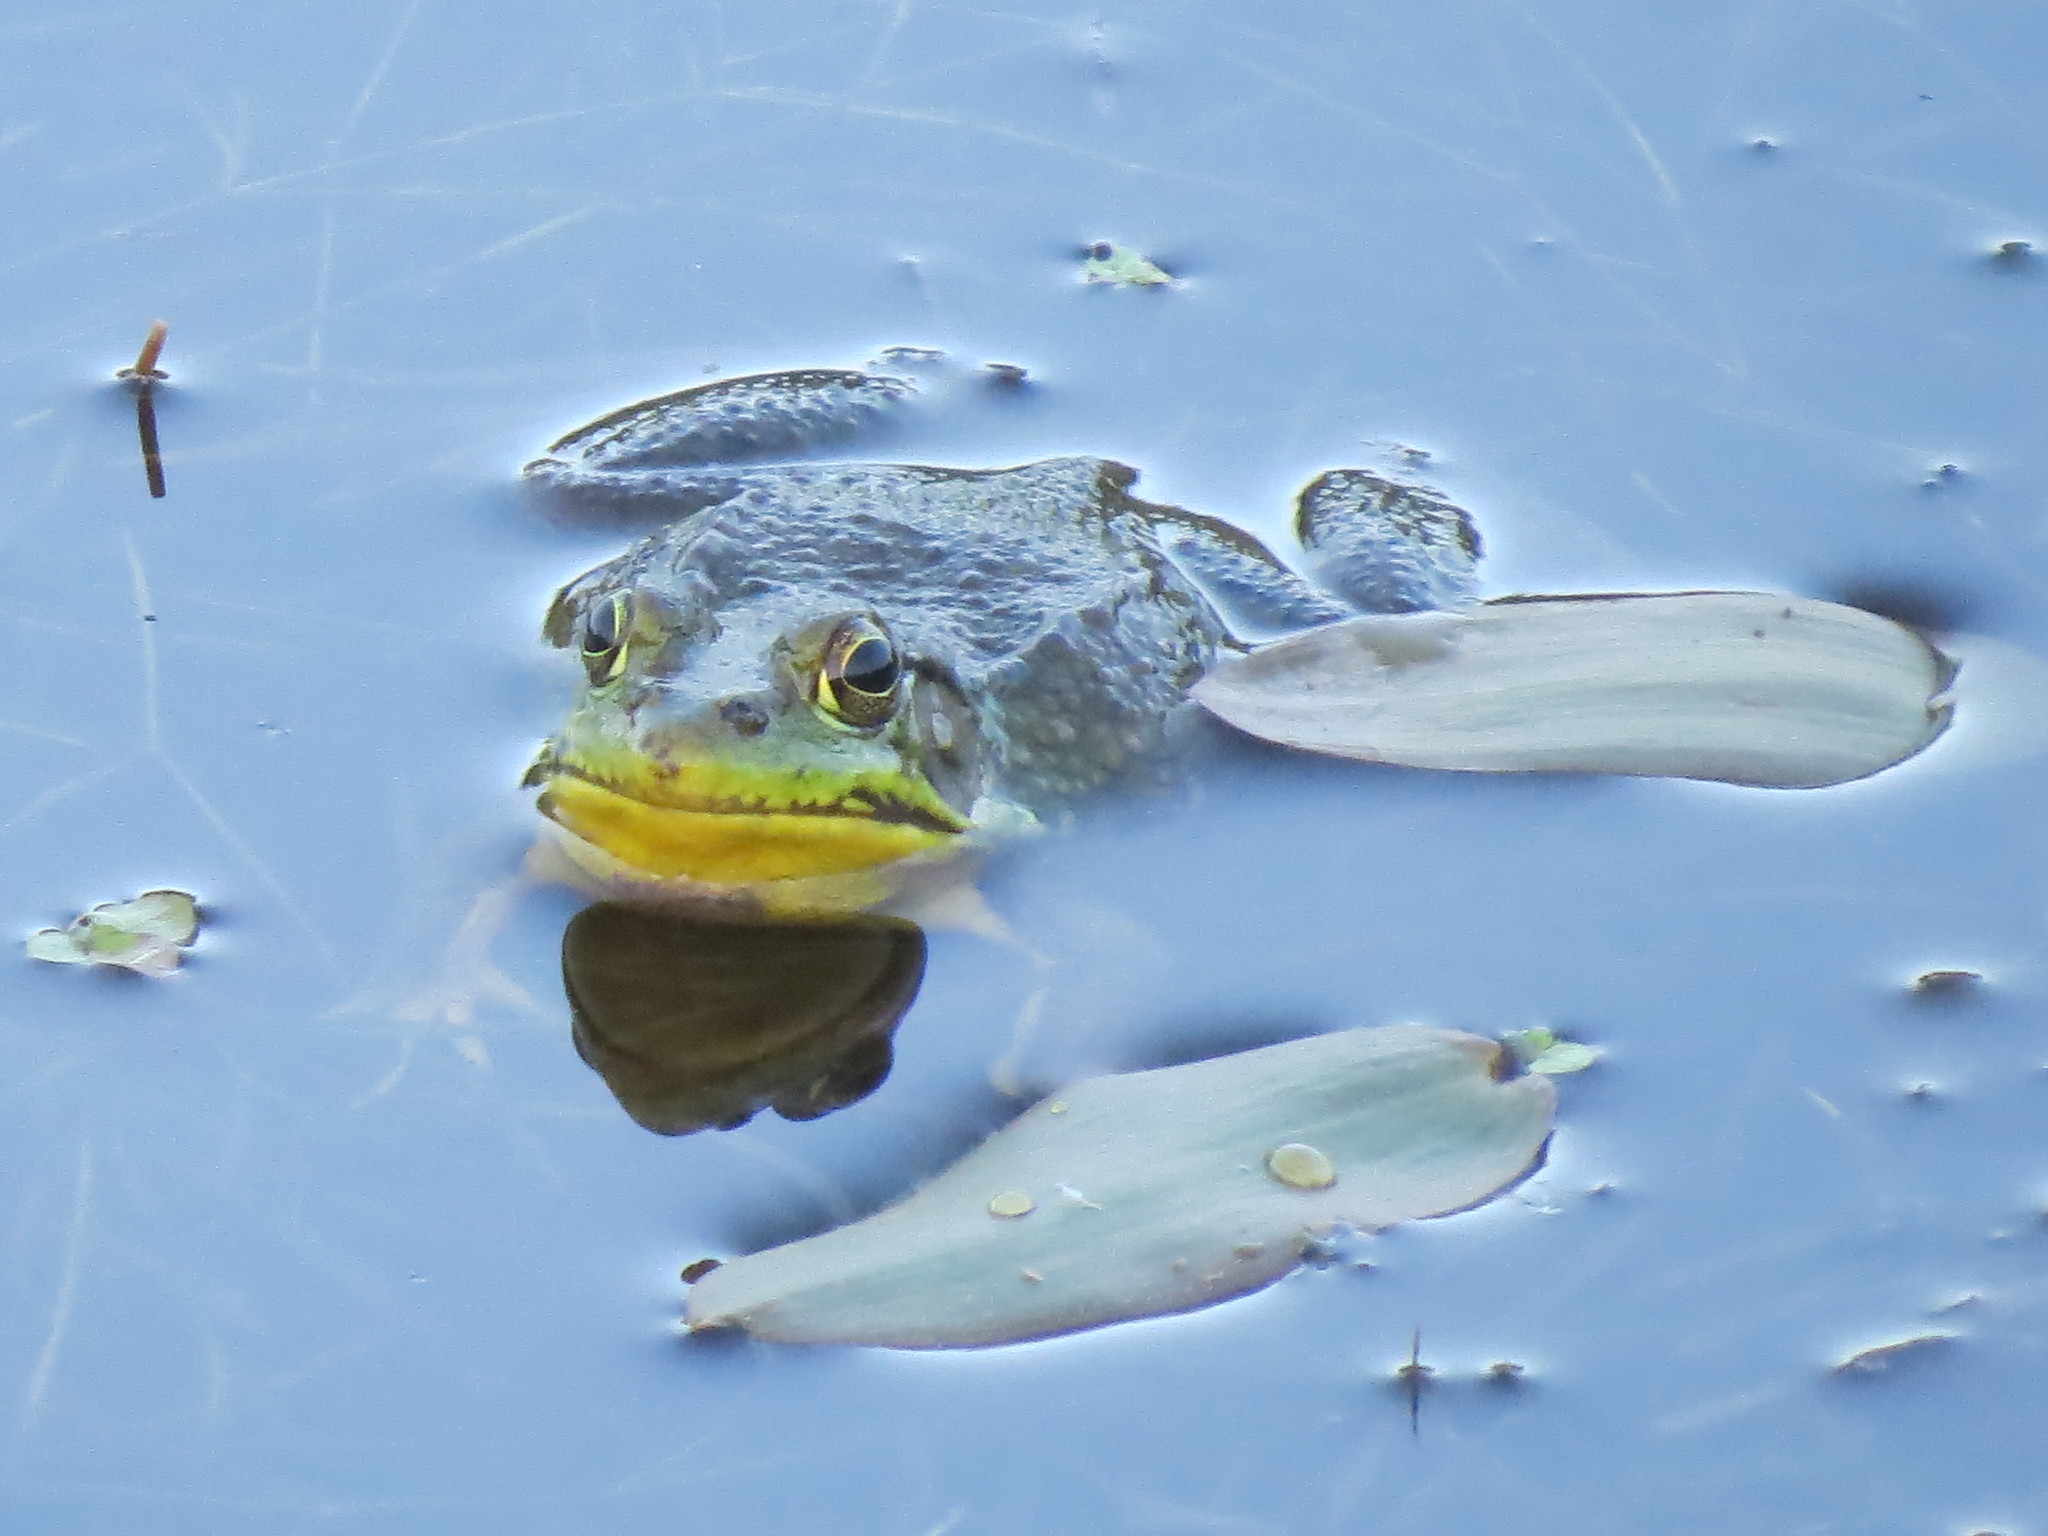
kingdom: Animalia
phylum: Chordata
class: Amphibia
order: Anura
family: Ranidae
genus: Lithobates
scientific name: Lithobates clamitans
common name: Green frog
